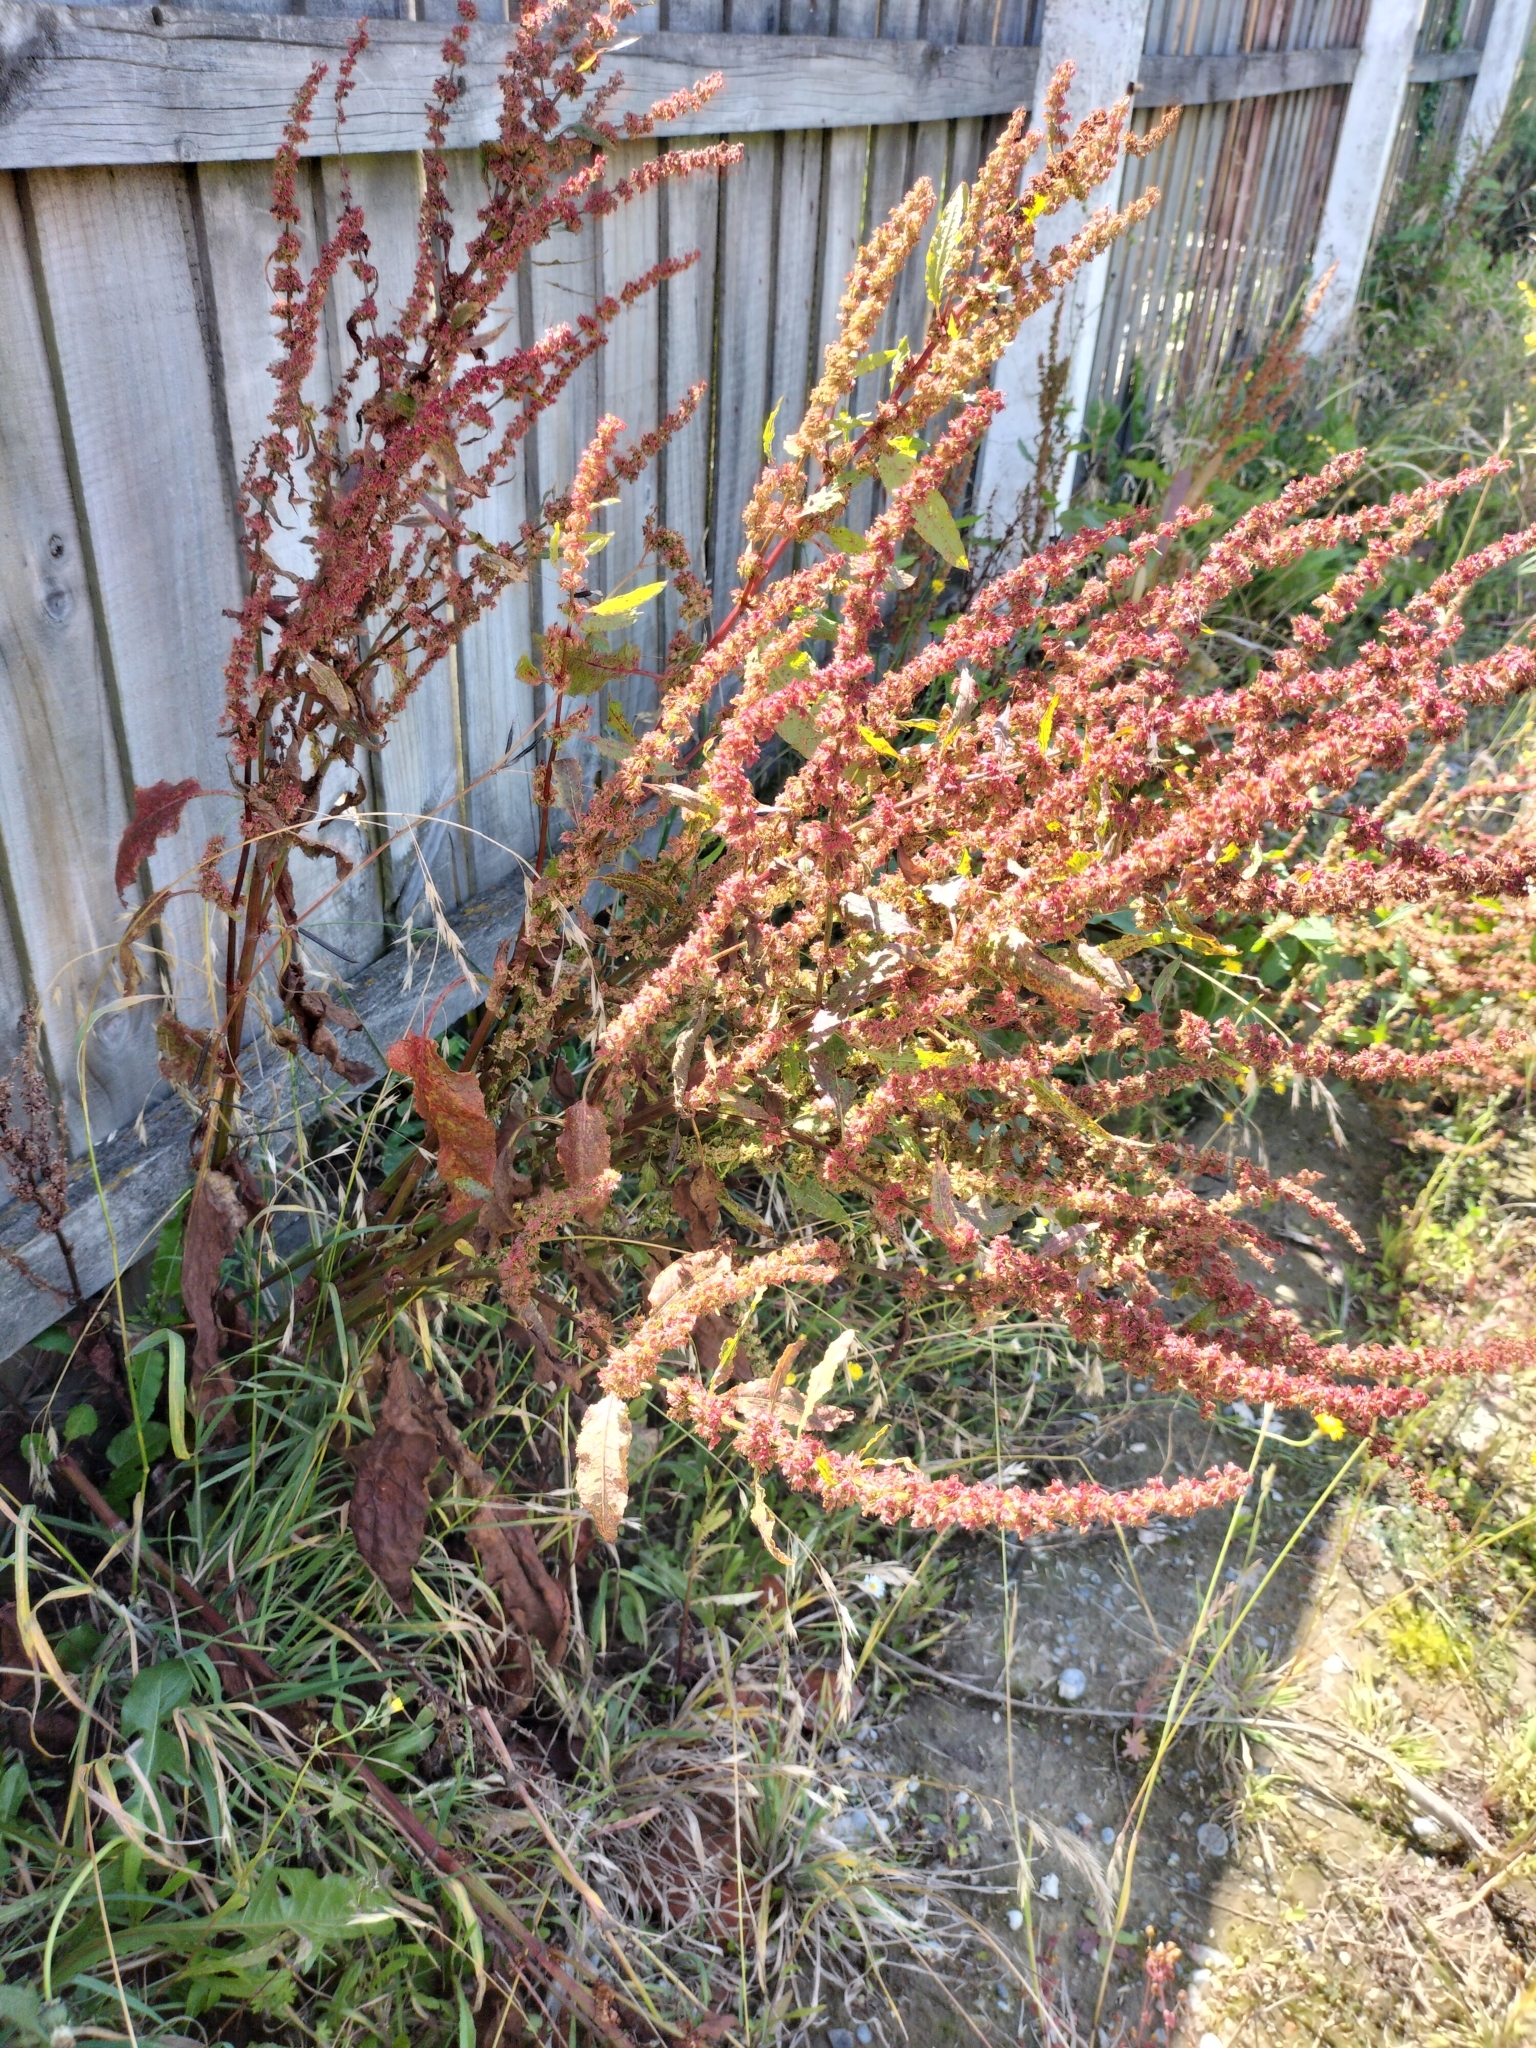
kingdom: Plantae
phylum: Tracheophyta
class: Magnoliopsida
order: Caryophyllales
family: Polygonaceae
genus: Rumex
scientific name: Rumex obtusifolius
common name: Bitter dock
